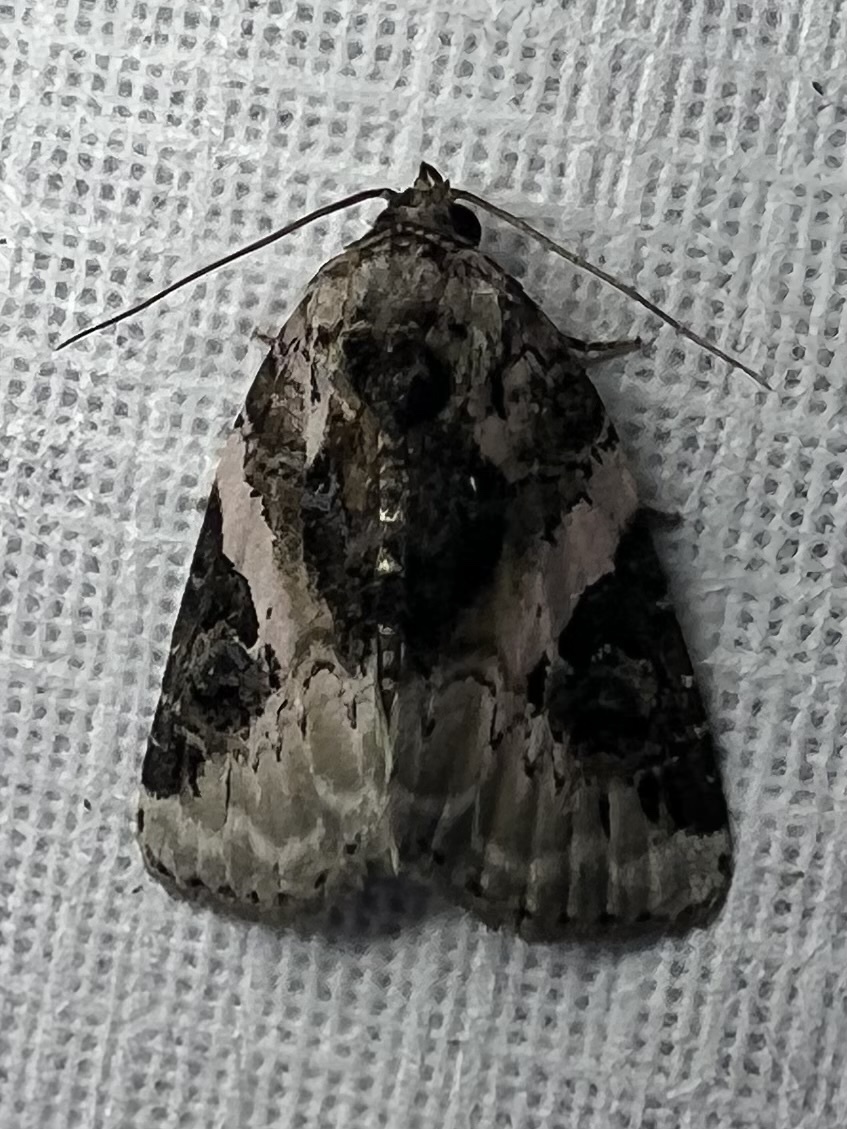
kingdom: Animalia
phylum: Arthropoda
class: Insecta
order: Lepidoptera
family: Noctuidae
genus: Pseudeustrotia
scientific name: Pseudeustrotia carneola
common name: Pink-barred lithacodia moth
